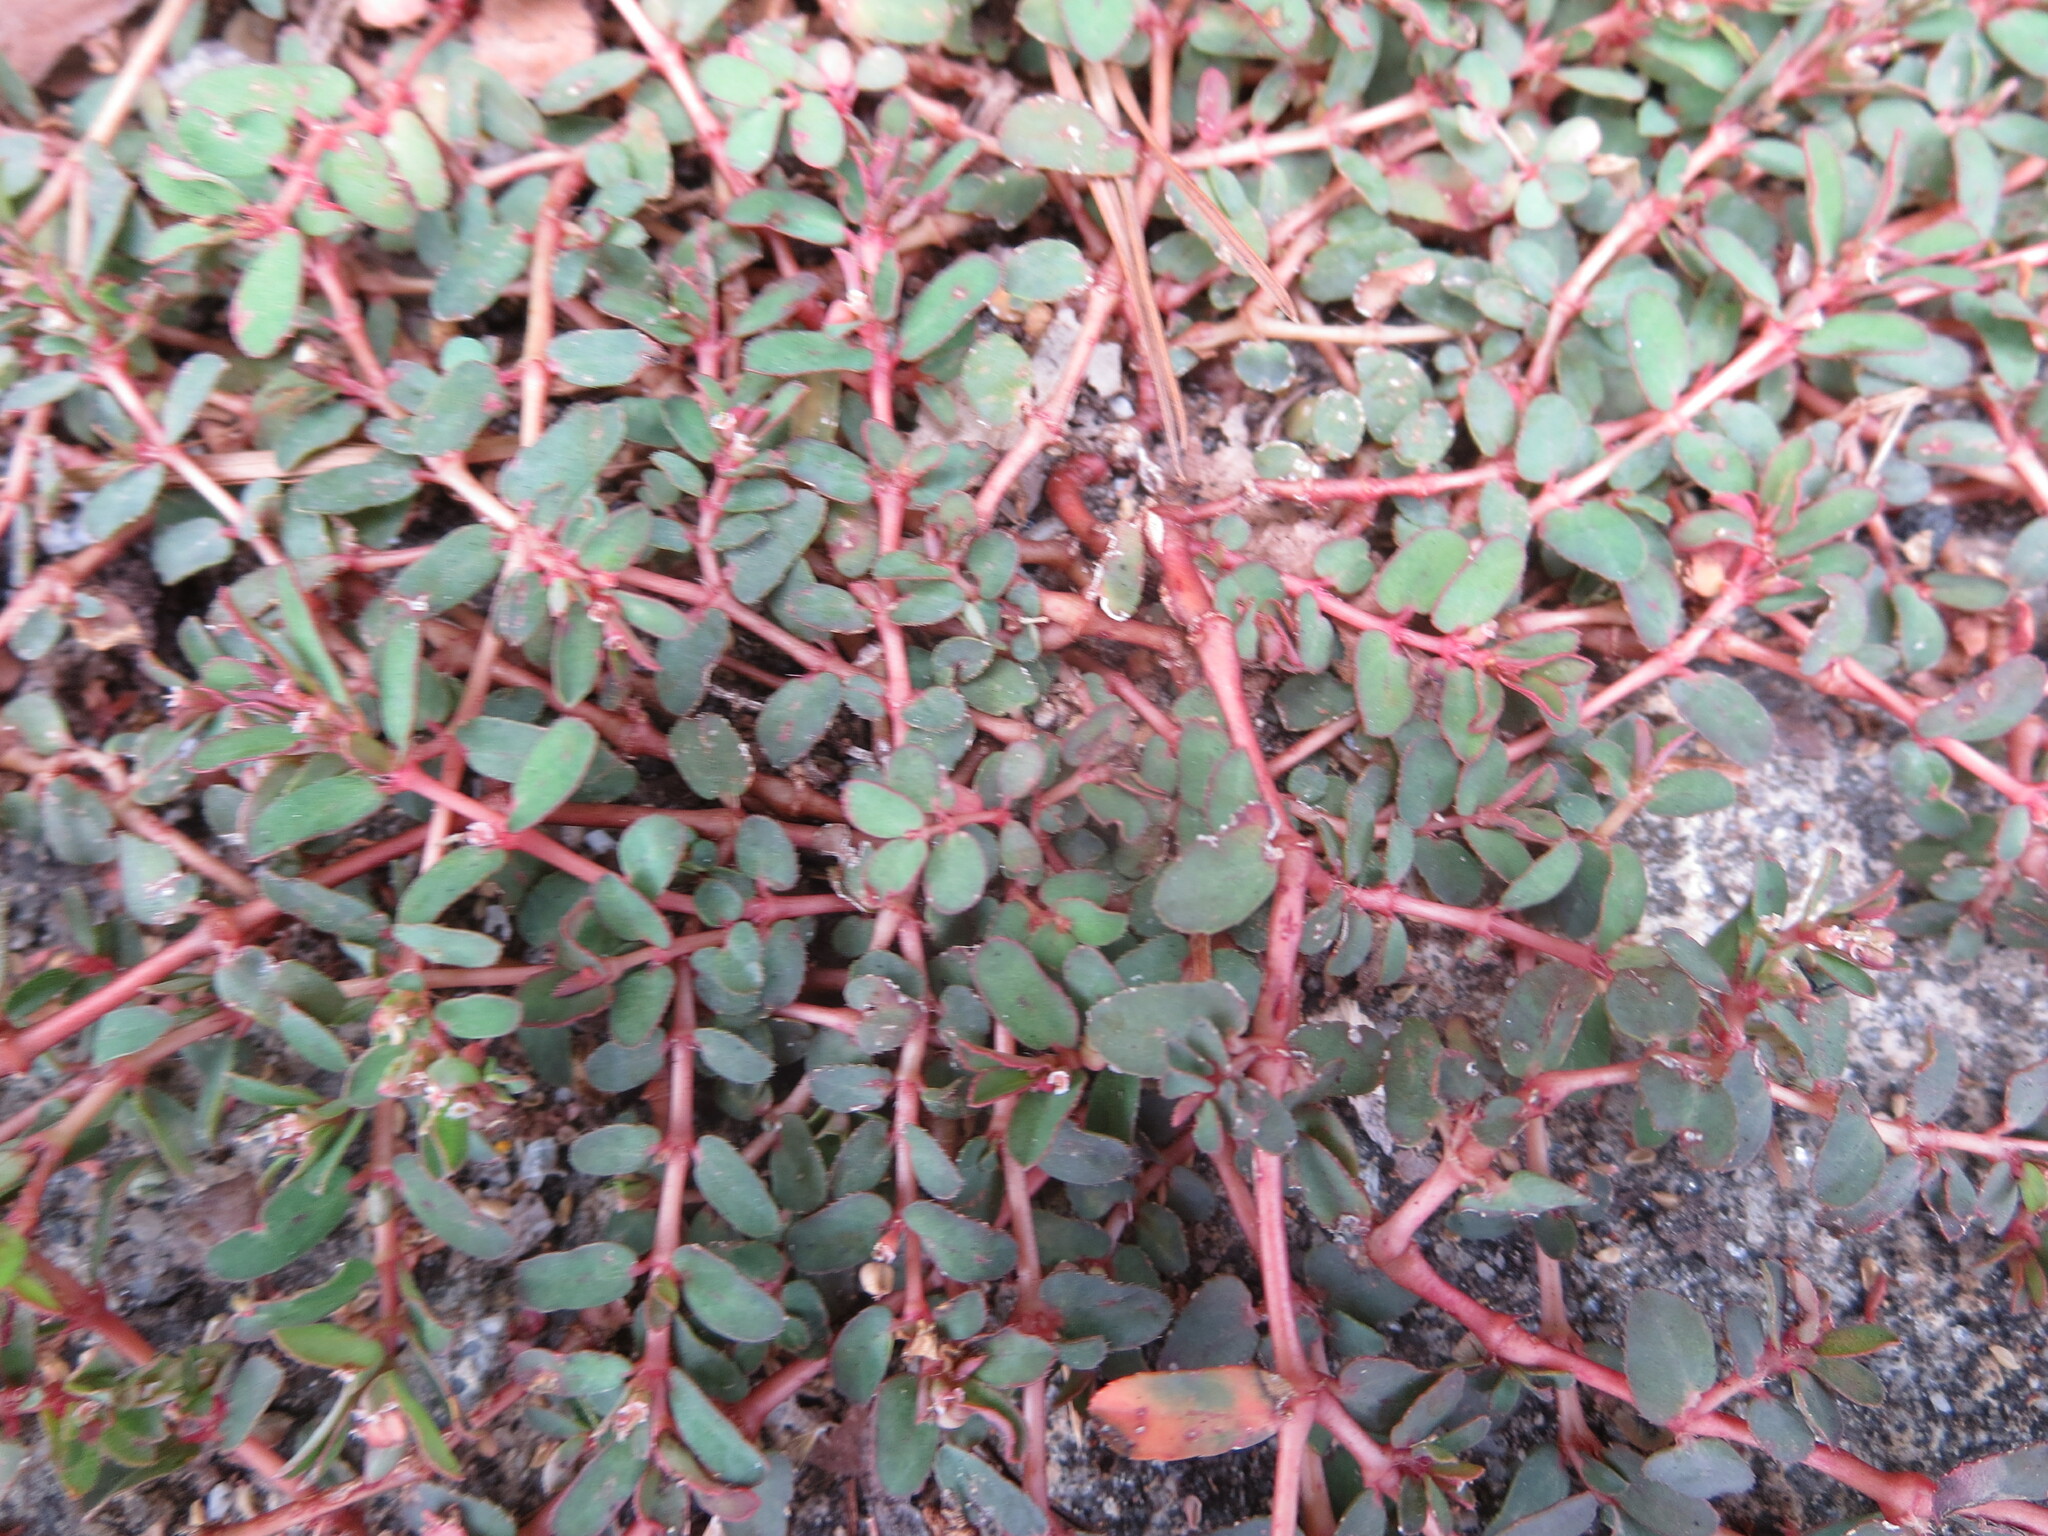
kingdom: Plantae
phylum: Tracheophyta
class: Magnoliopsida
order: Malpighiales
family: Euphorbiaceae
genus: Euphorbia
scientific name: Euphorbia maculata
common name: Spotted spurge
